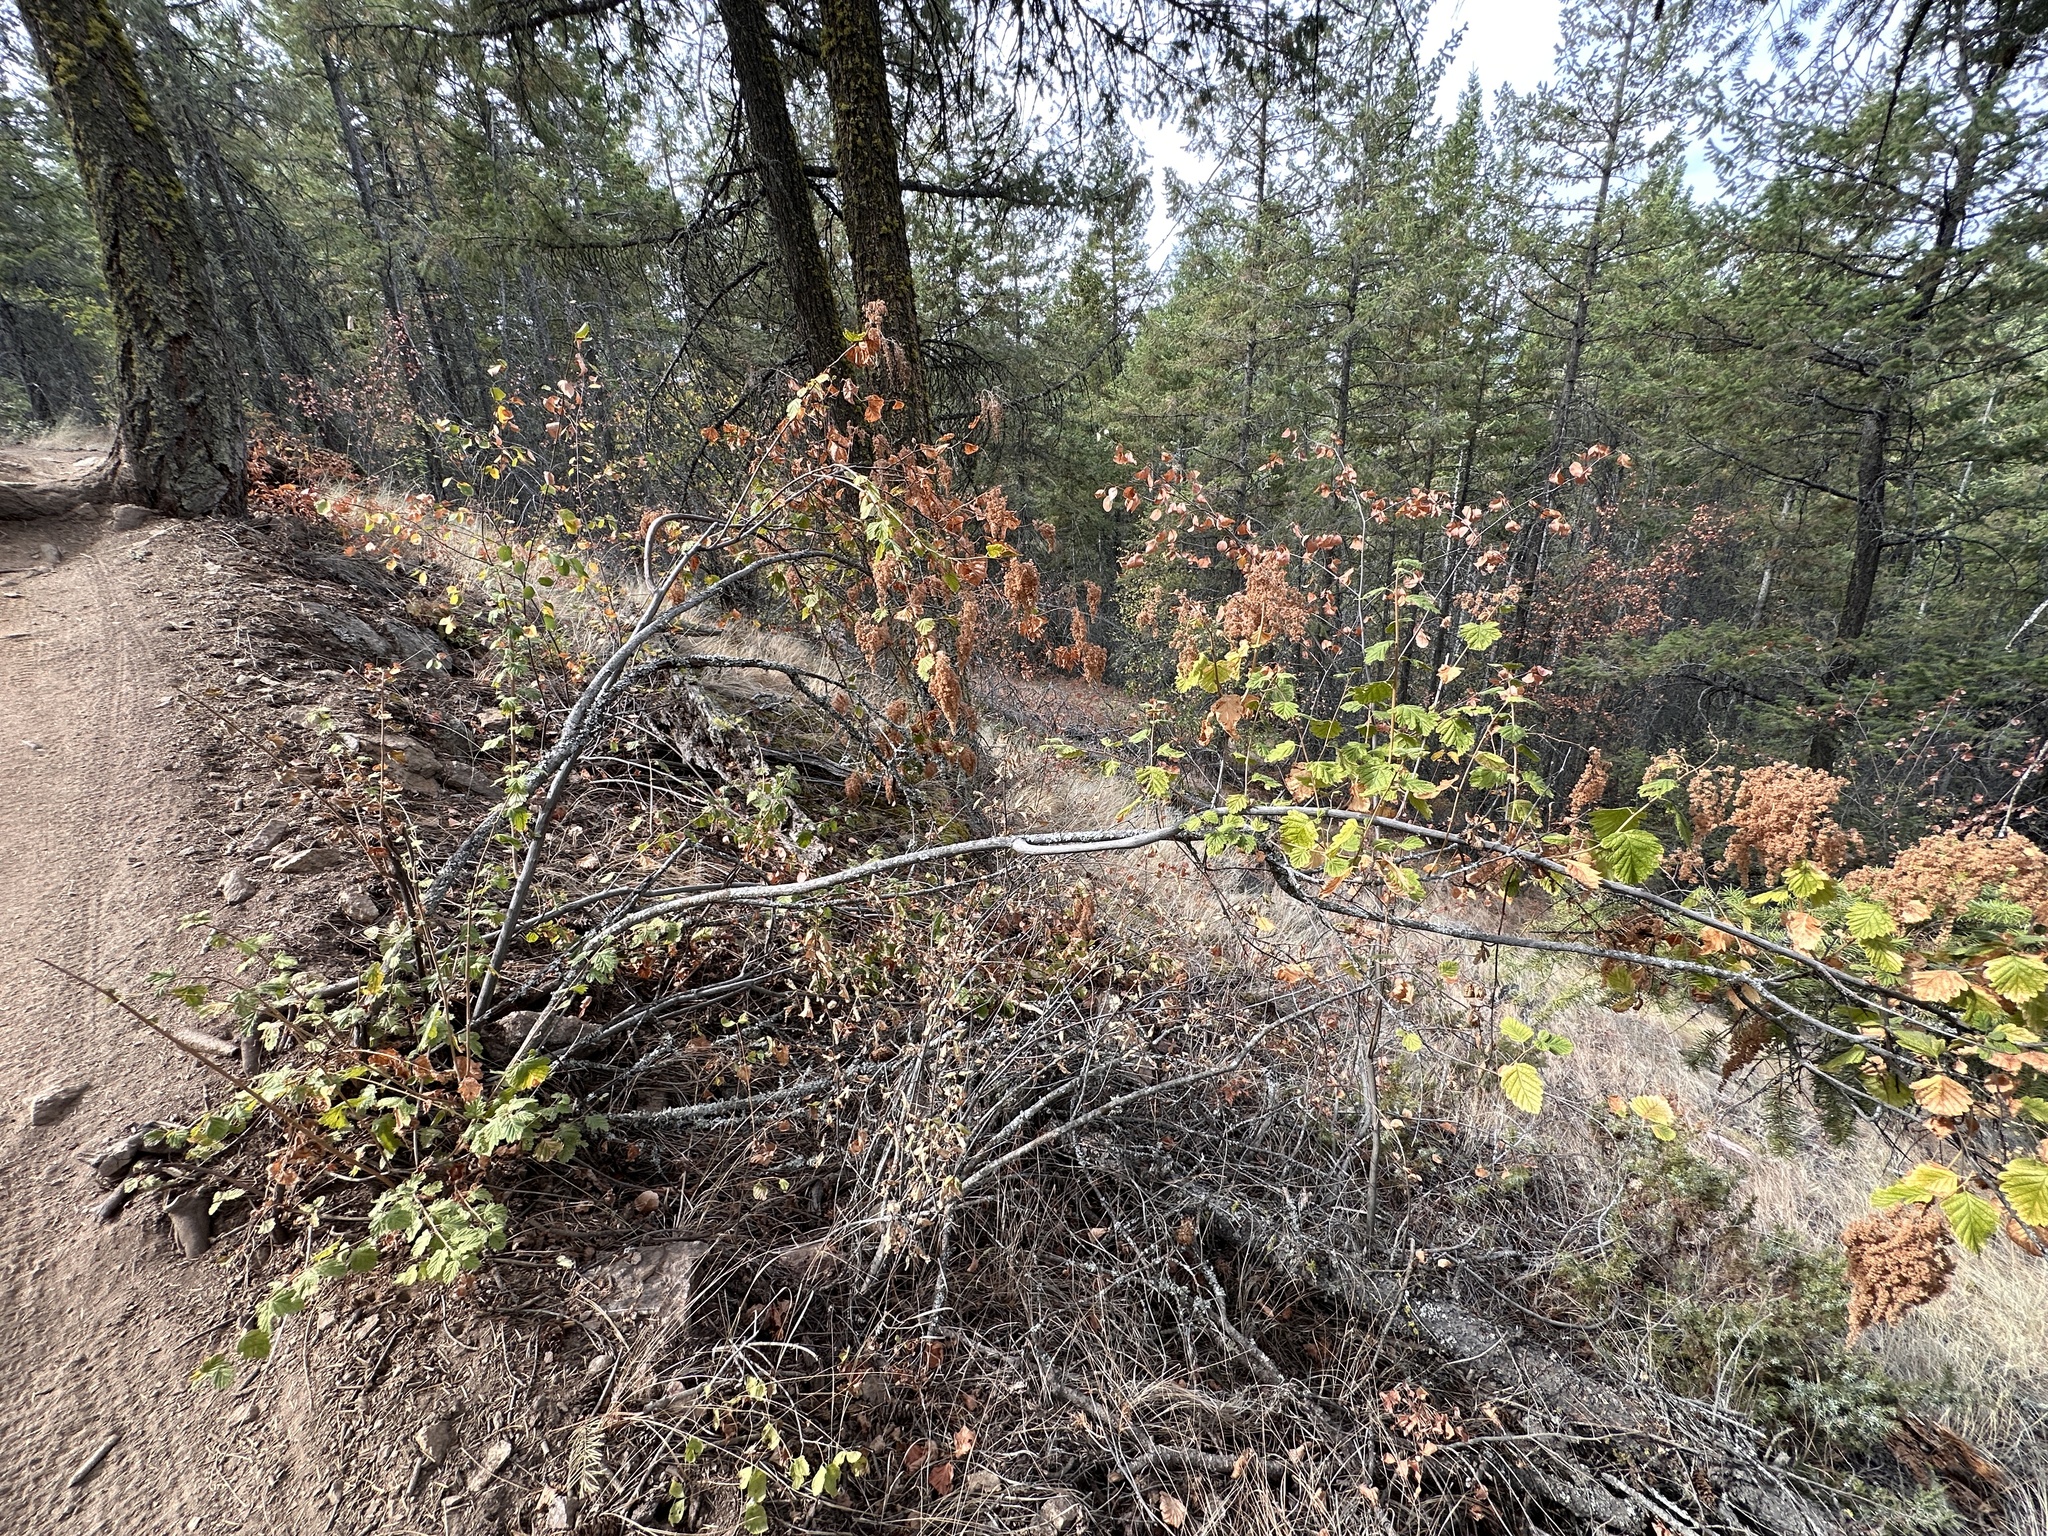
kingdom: Plantae
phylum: Tracheophyta
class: Magnoliopsida
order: Rosales
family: Rosaceae
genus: Holodiscus
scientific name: Holodiscus discolor
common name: Oceanspray
